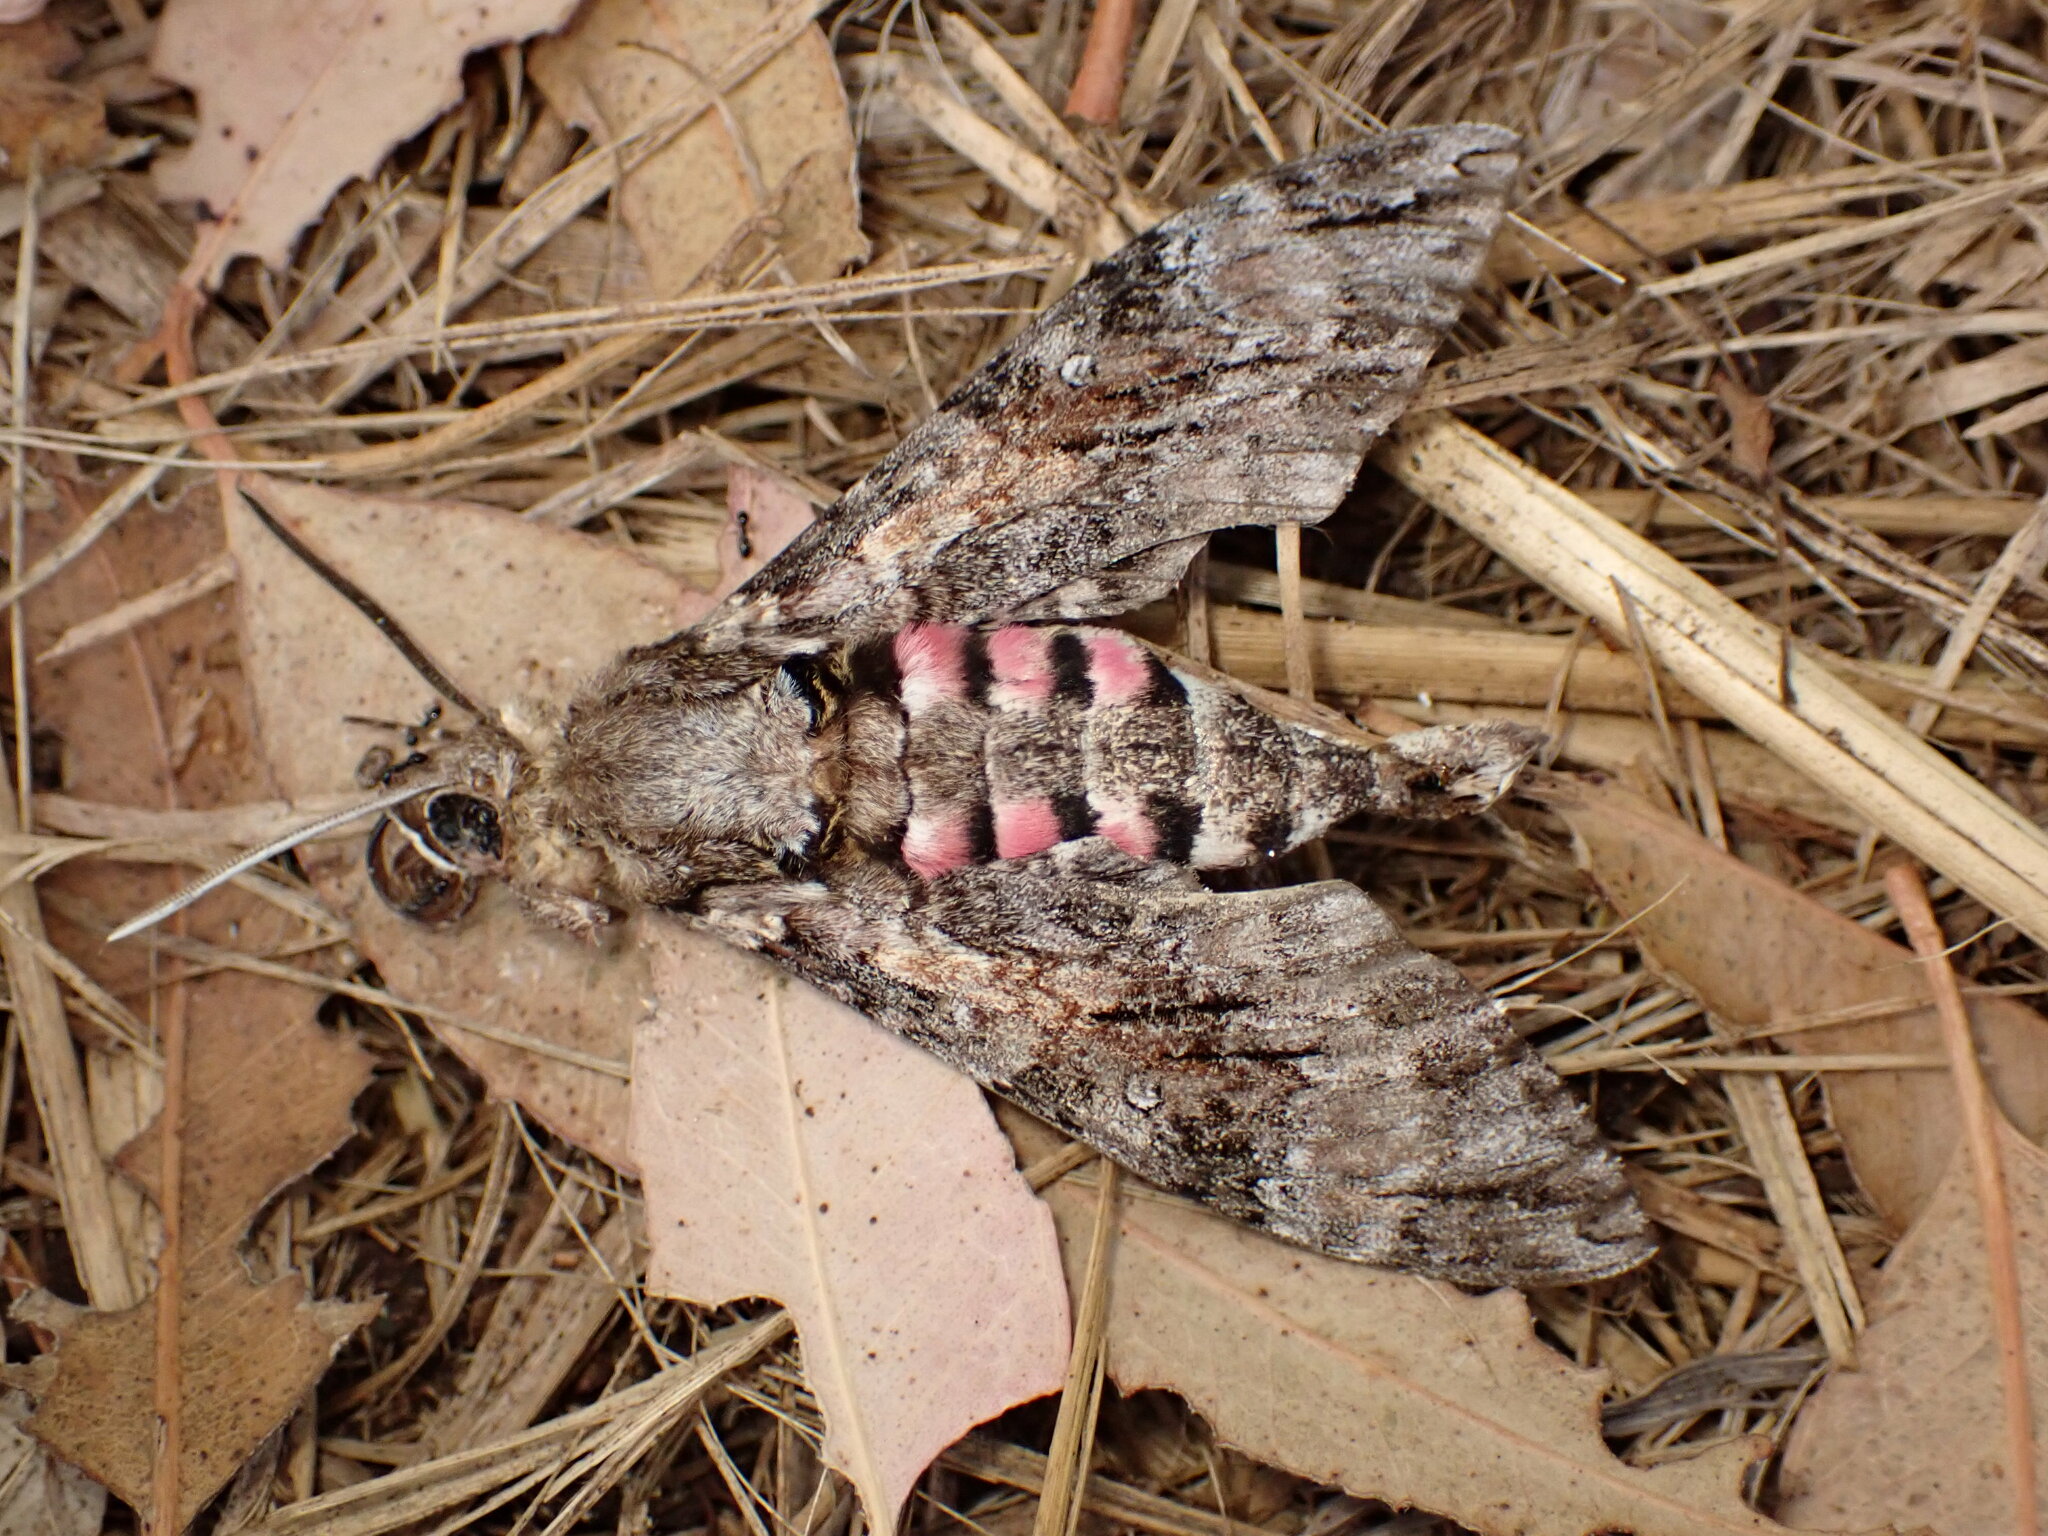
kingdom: Animalia
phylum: Arthropoda
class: Insecta
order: Lepidoptera
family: Sphingidae
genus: Agrius
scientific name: Agrius cingulata
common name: Pink-spotted hawkmoth
